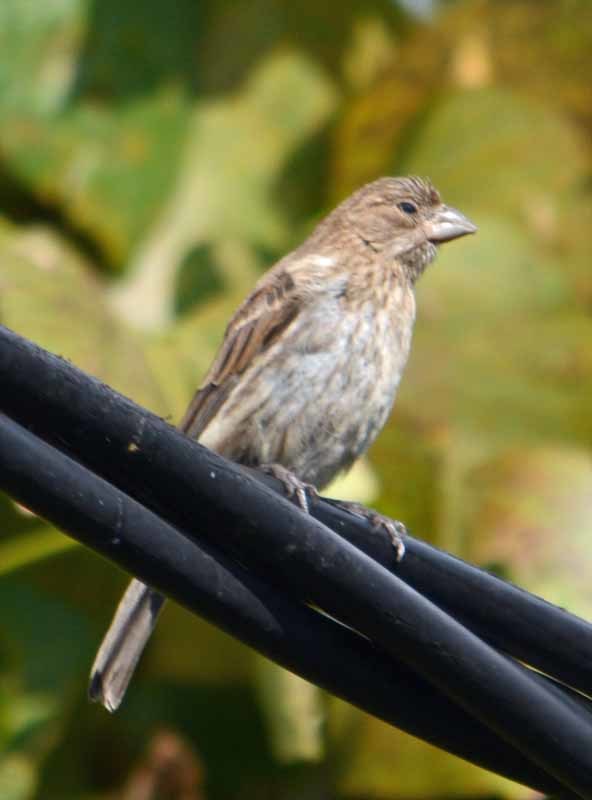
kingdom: Animalia
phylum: Chordata
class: Aves
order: Passeriformes
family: Fringillidae
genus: Haemorhous
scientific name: Haemorhous mexicanus
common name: House finch
